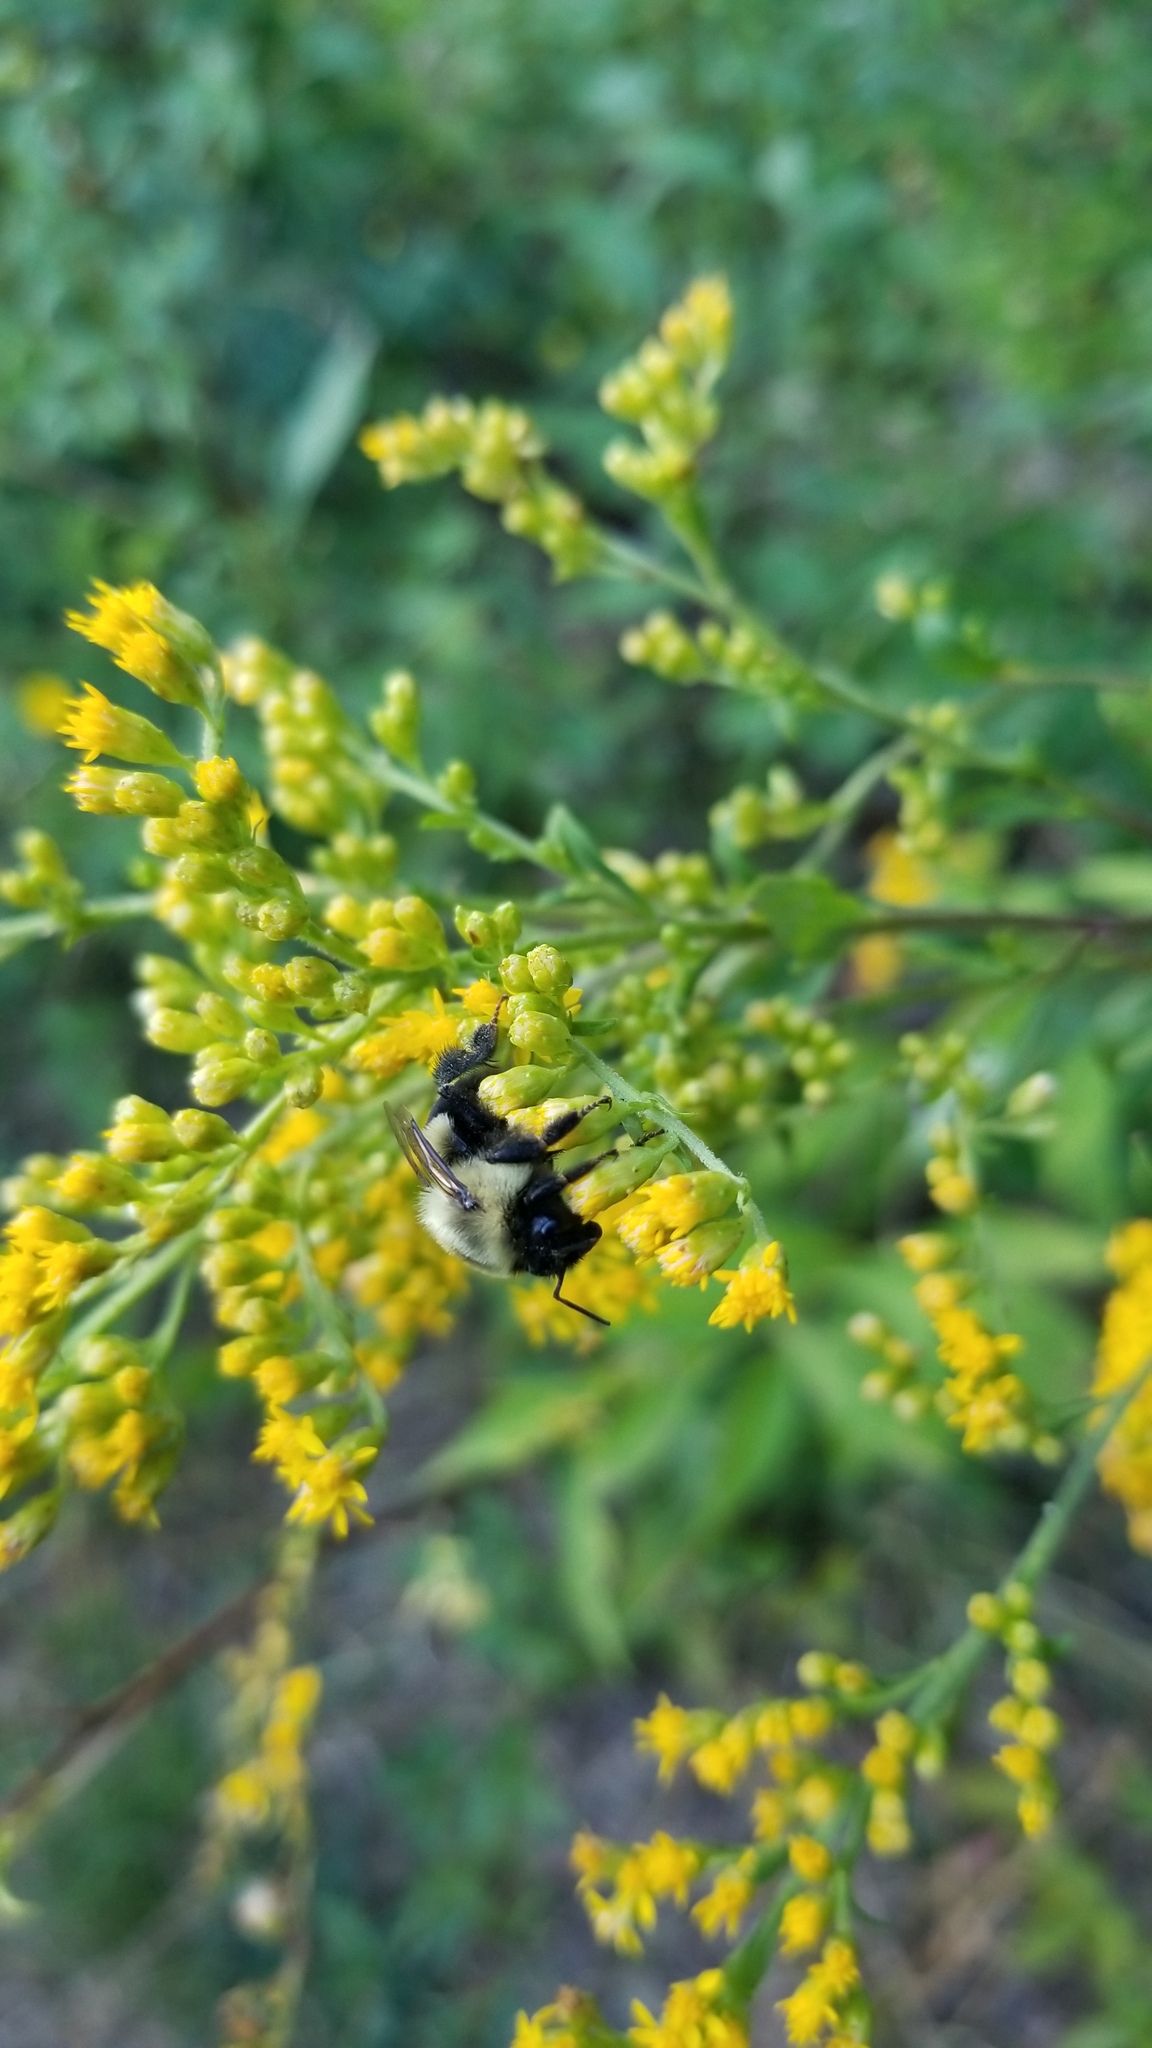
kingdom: Animalia
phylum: Arthropoda
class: Insecta
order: Hymenoptera
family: Apidae
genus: Bombus
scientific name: Bombus impatiens
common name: Common eastern bumble bee
